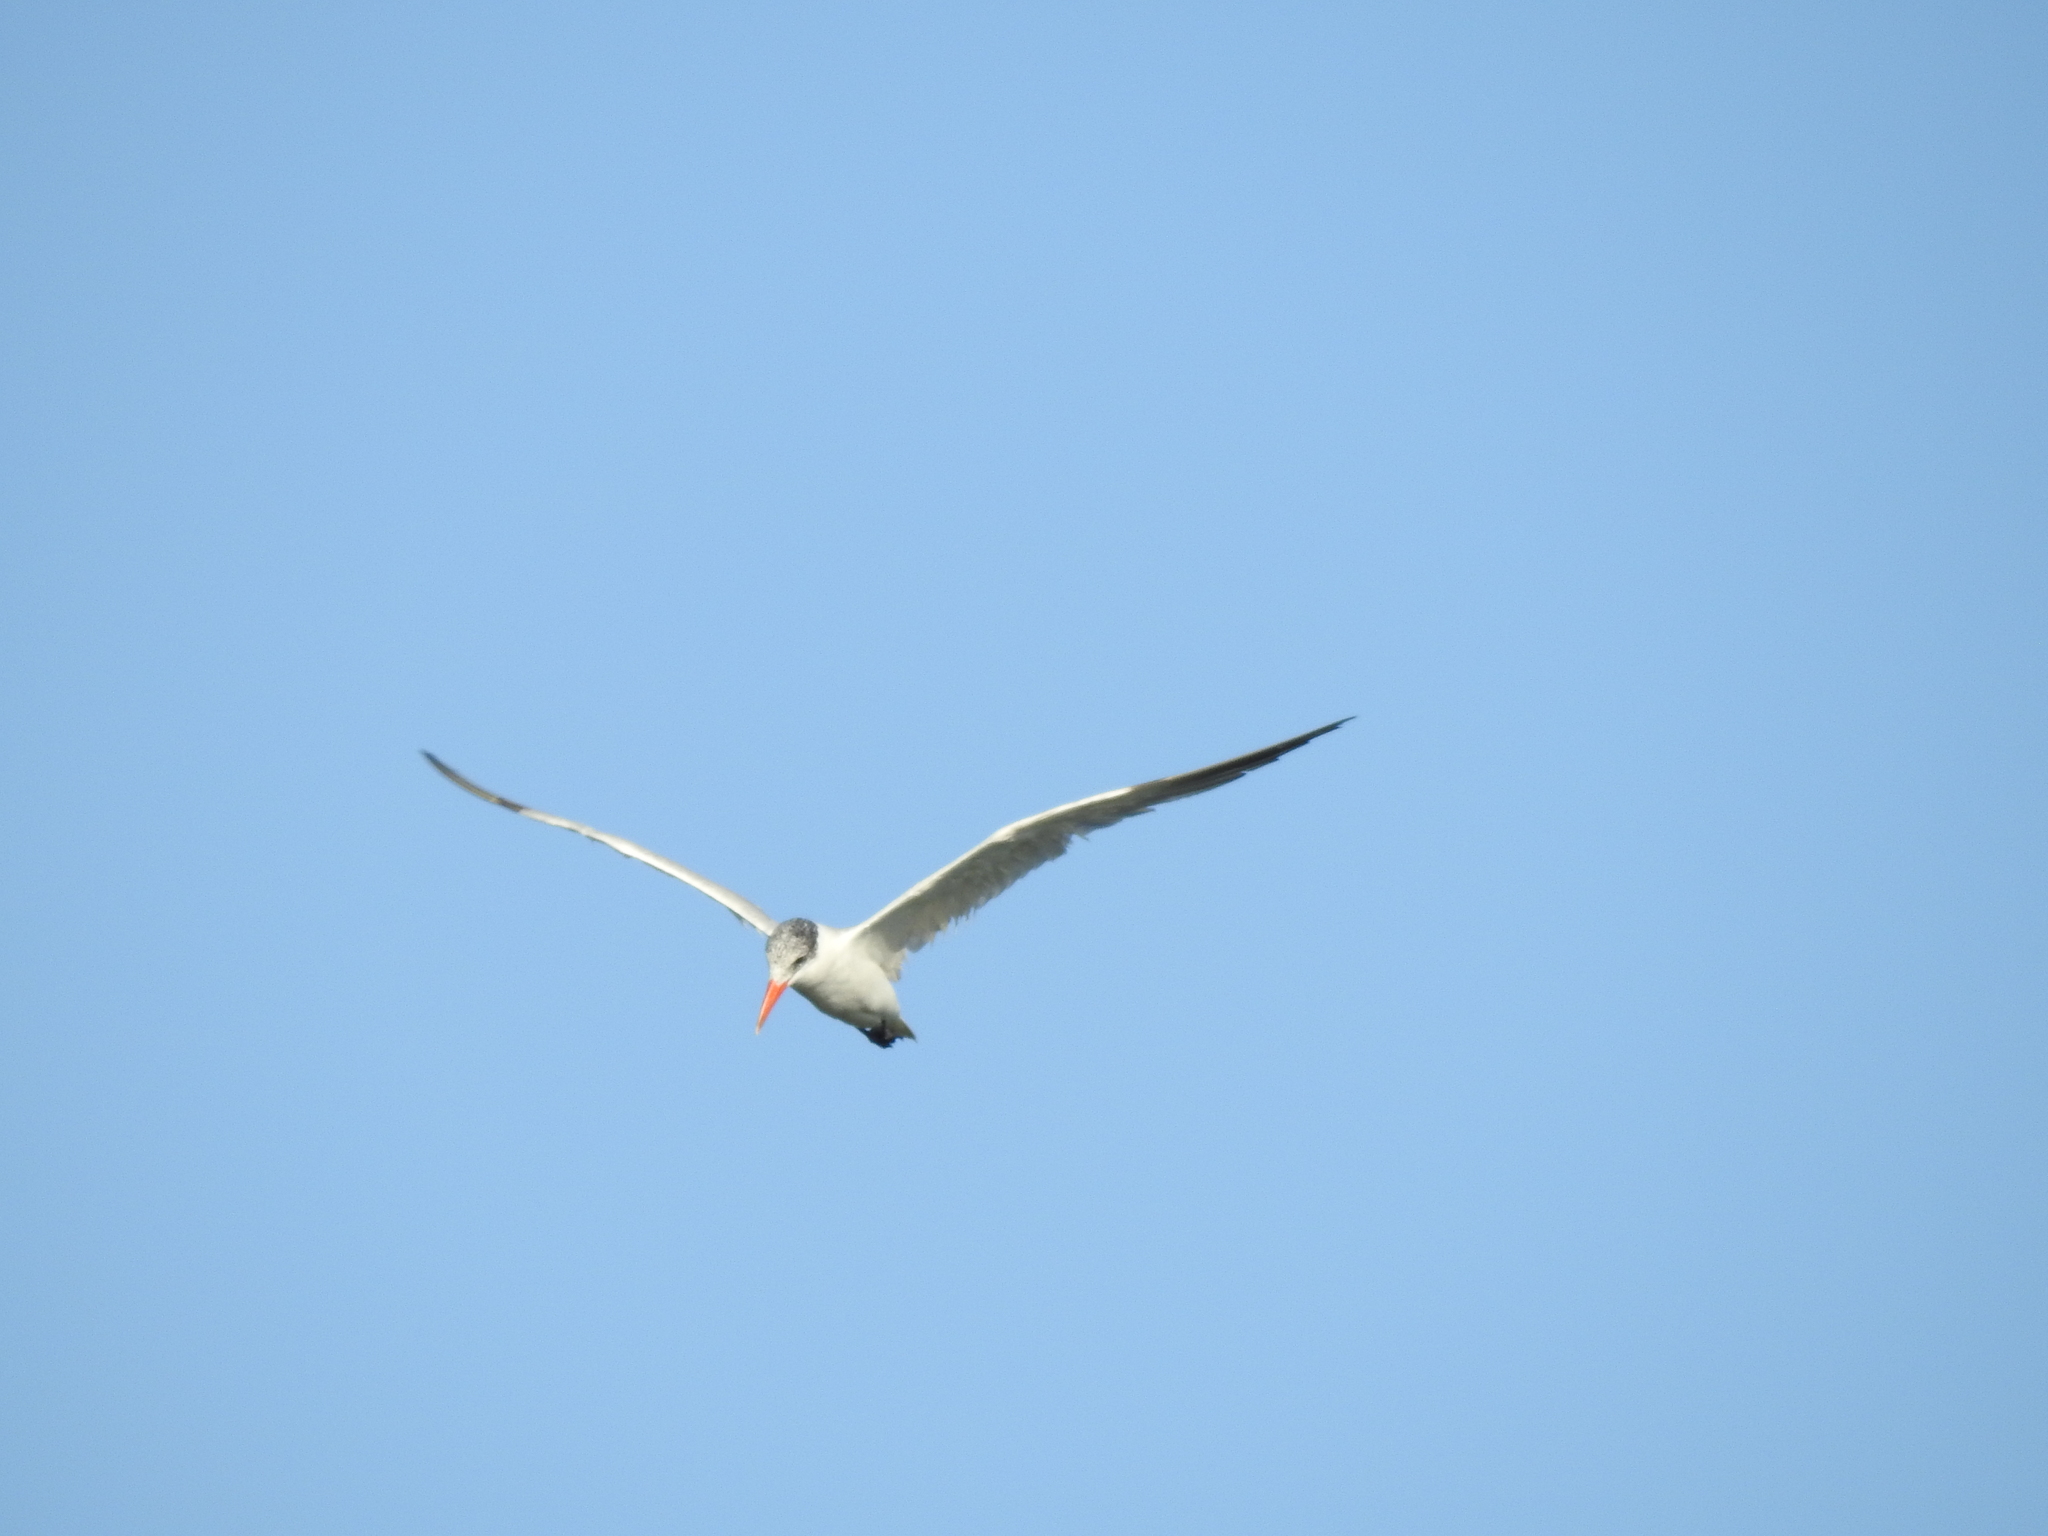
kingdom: Animalia
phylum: Chordata
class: Aves
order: Charadriiformes
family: Laridae
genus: Hydroprogne
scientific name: Hydroprogne caspia
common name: Caspian tern
